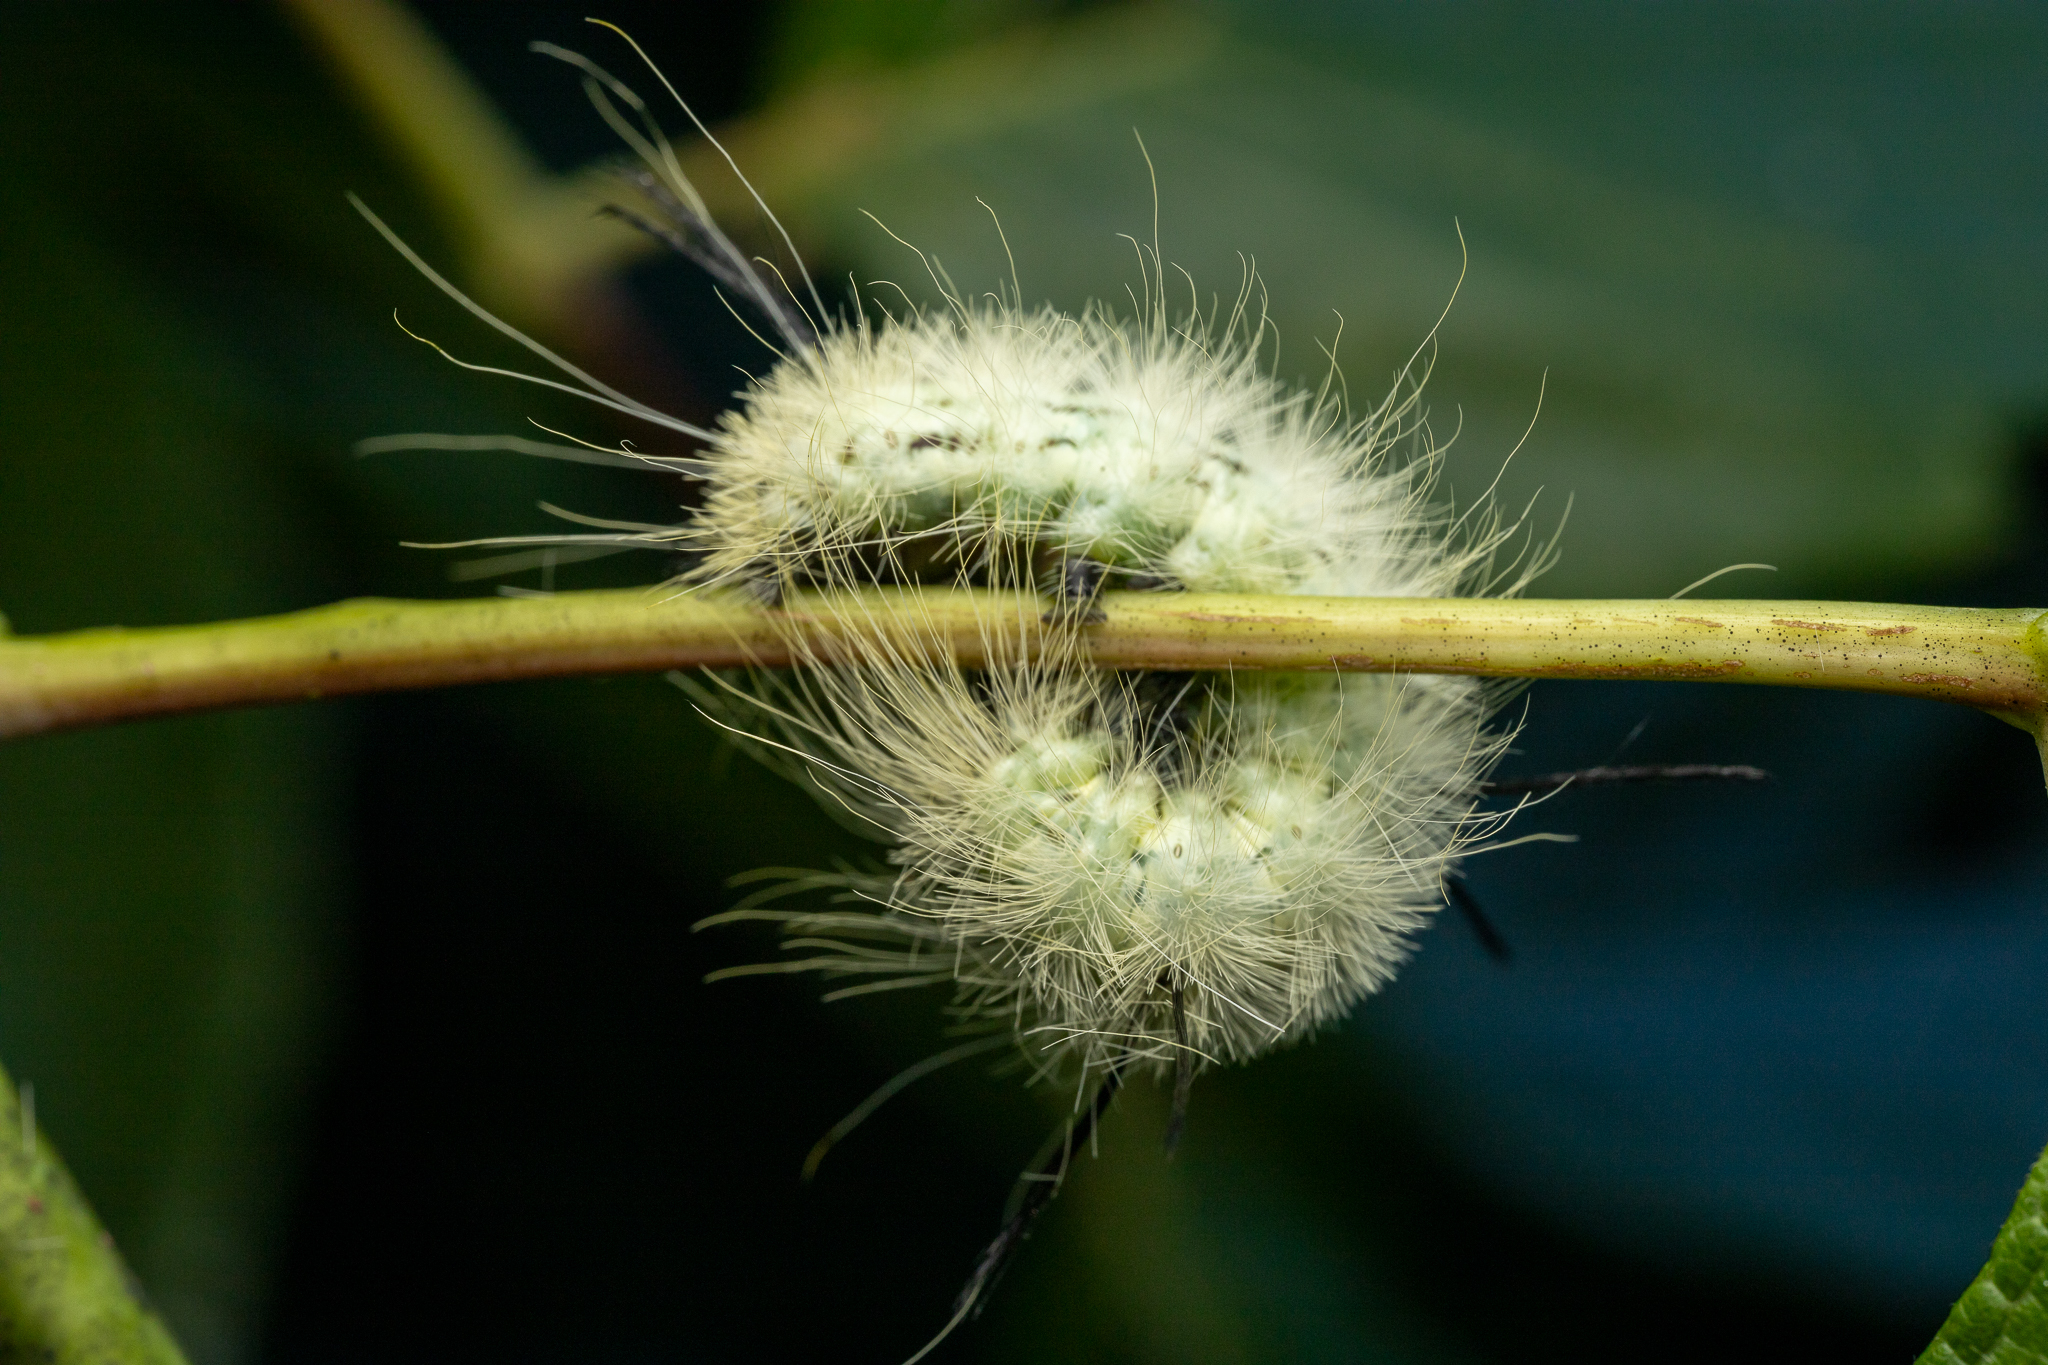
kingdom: Animalia
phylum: Arthropoda
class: Insecta
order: Lepidoptera
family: Noctuidae
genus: Acronicta
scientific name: Acronicta americana
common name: American dagger
